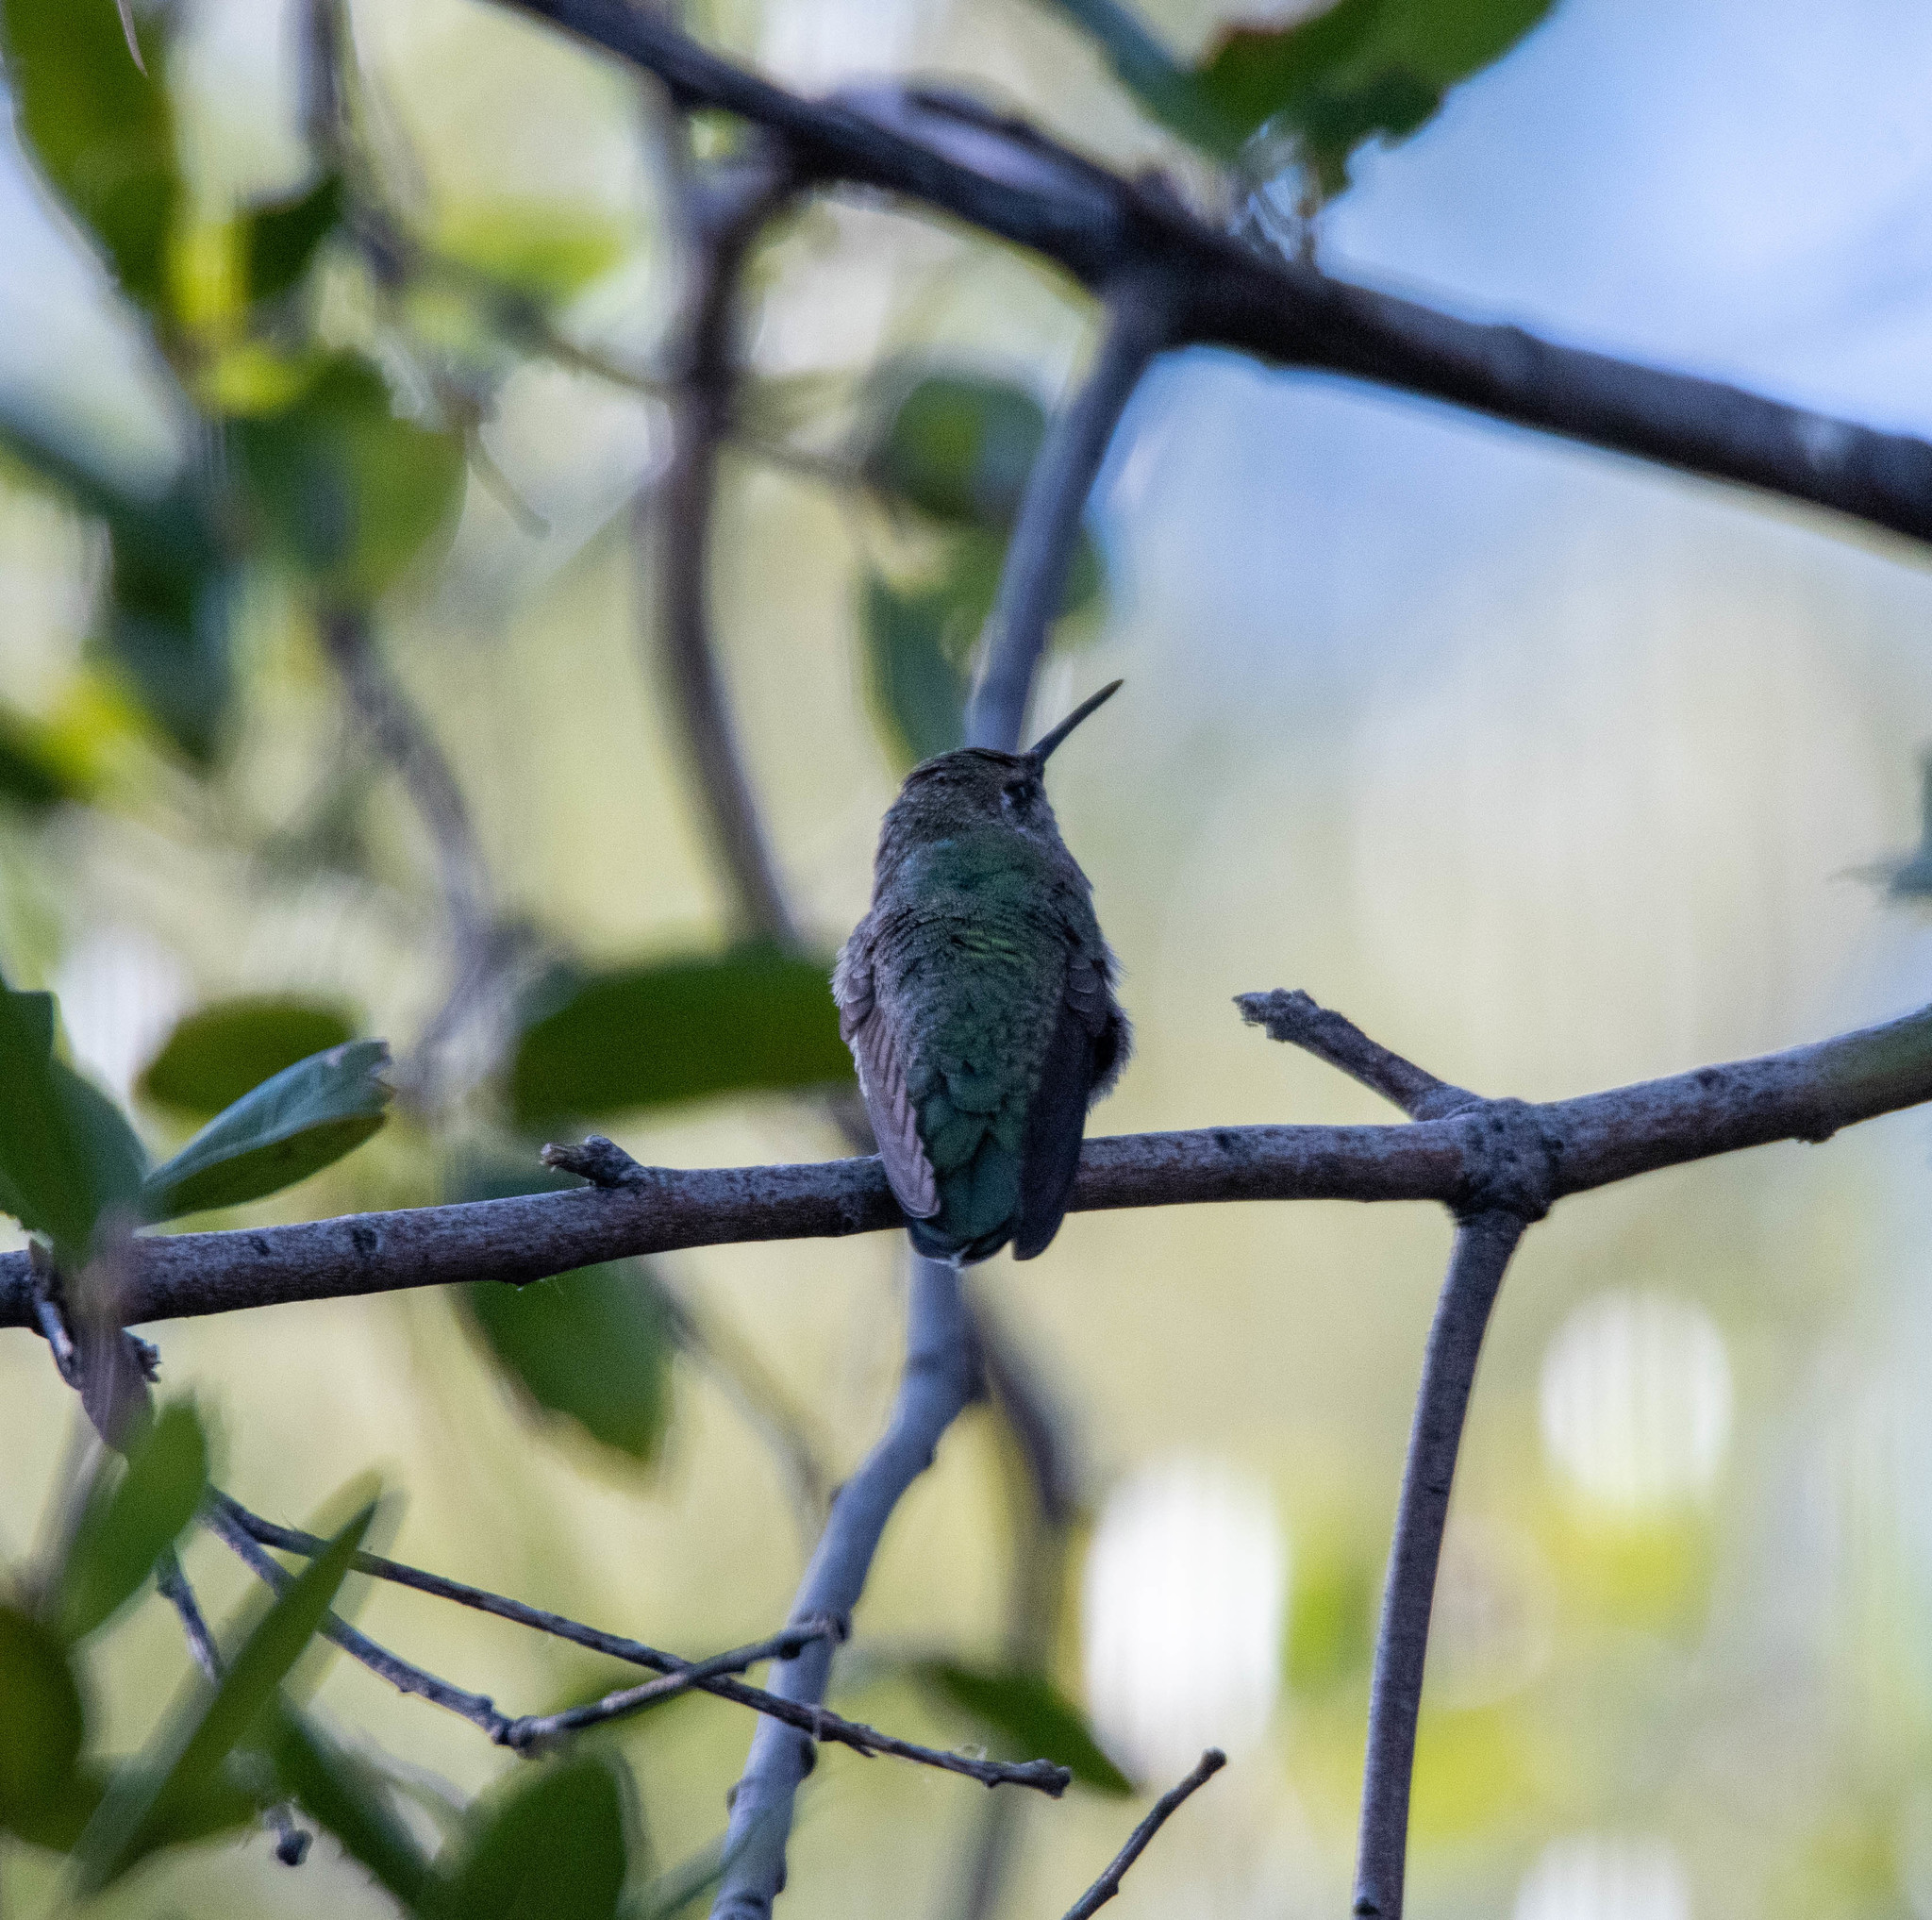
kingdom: Animalia
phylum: Chordata
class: Aves
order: Apodiformes
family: Trochilidae
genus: Calypte
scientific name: Calypte anna
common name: Anna's hummingbird
